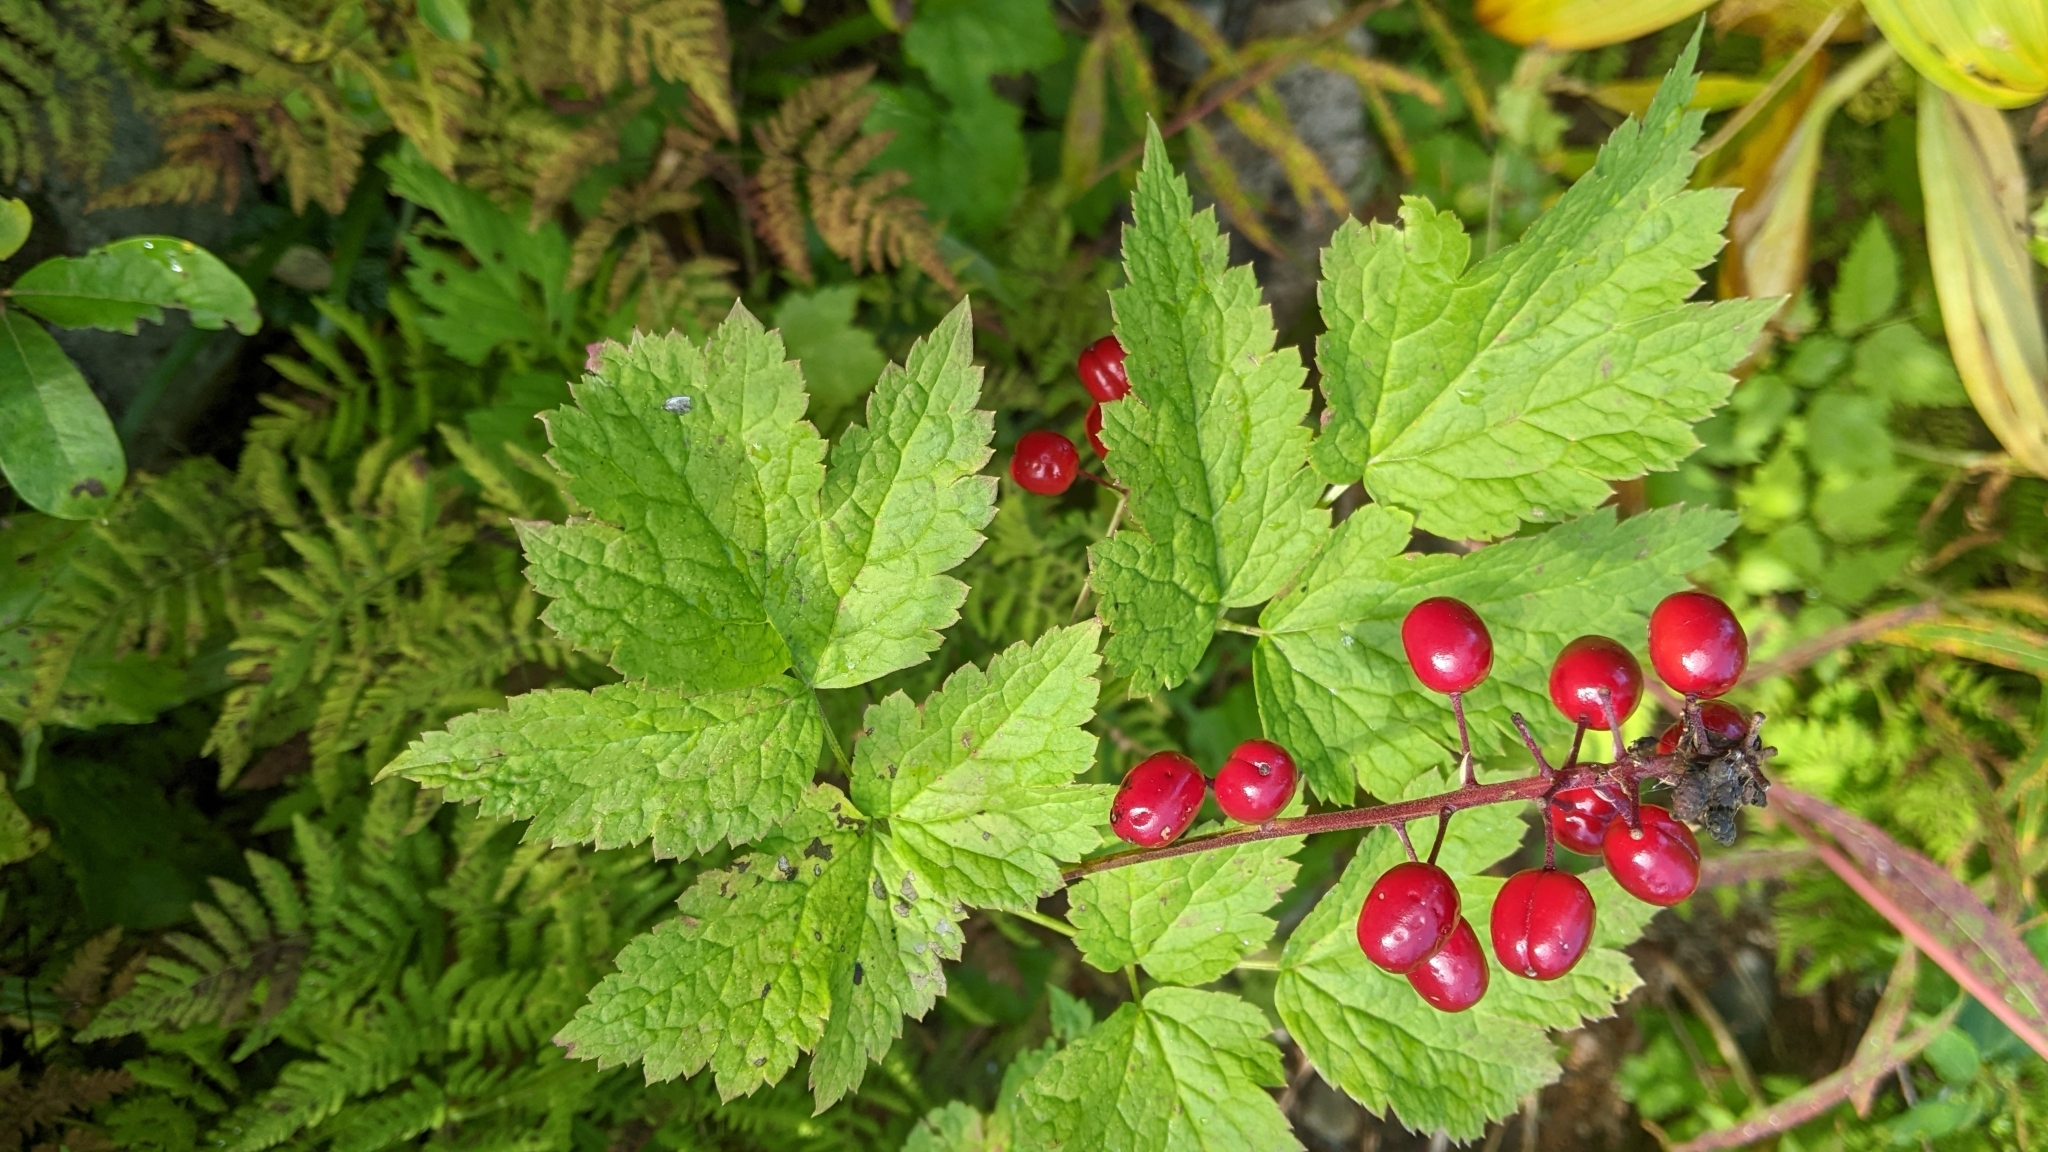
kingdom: Plantae
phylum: Tracheophyta
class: Magnoliopsida
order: Ranunculales
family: Ranunculaceae
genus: Actaea
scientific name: Actaea rubra
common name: Red baneberry
